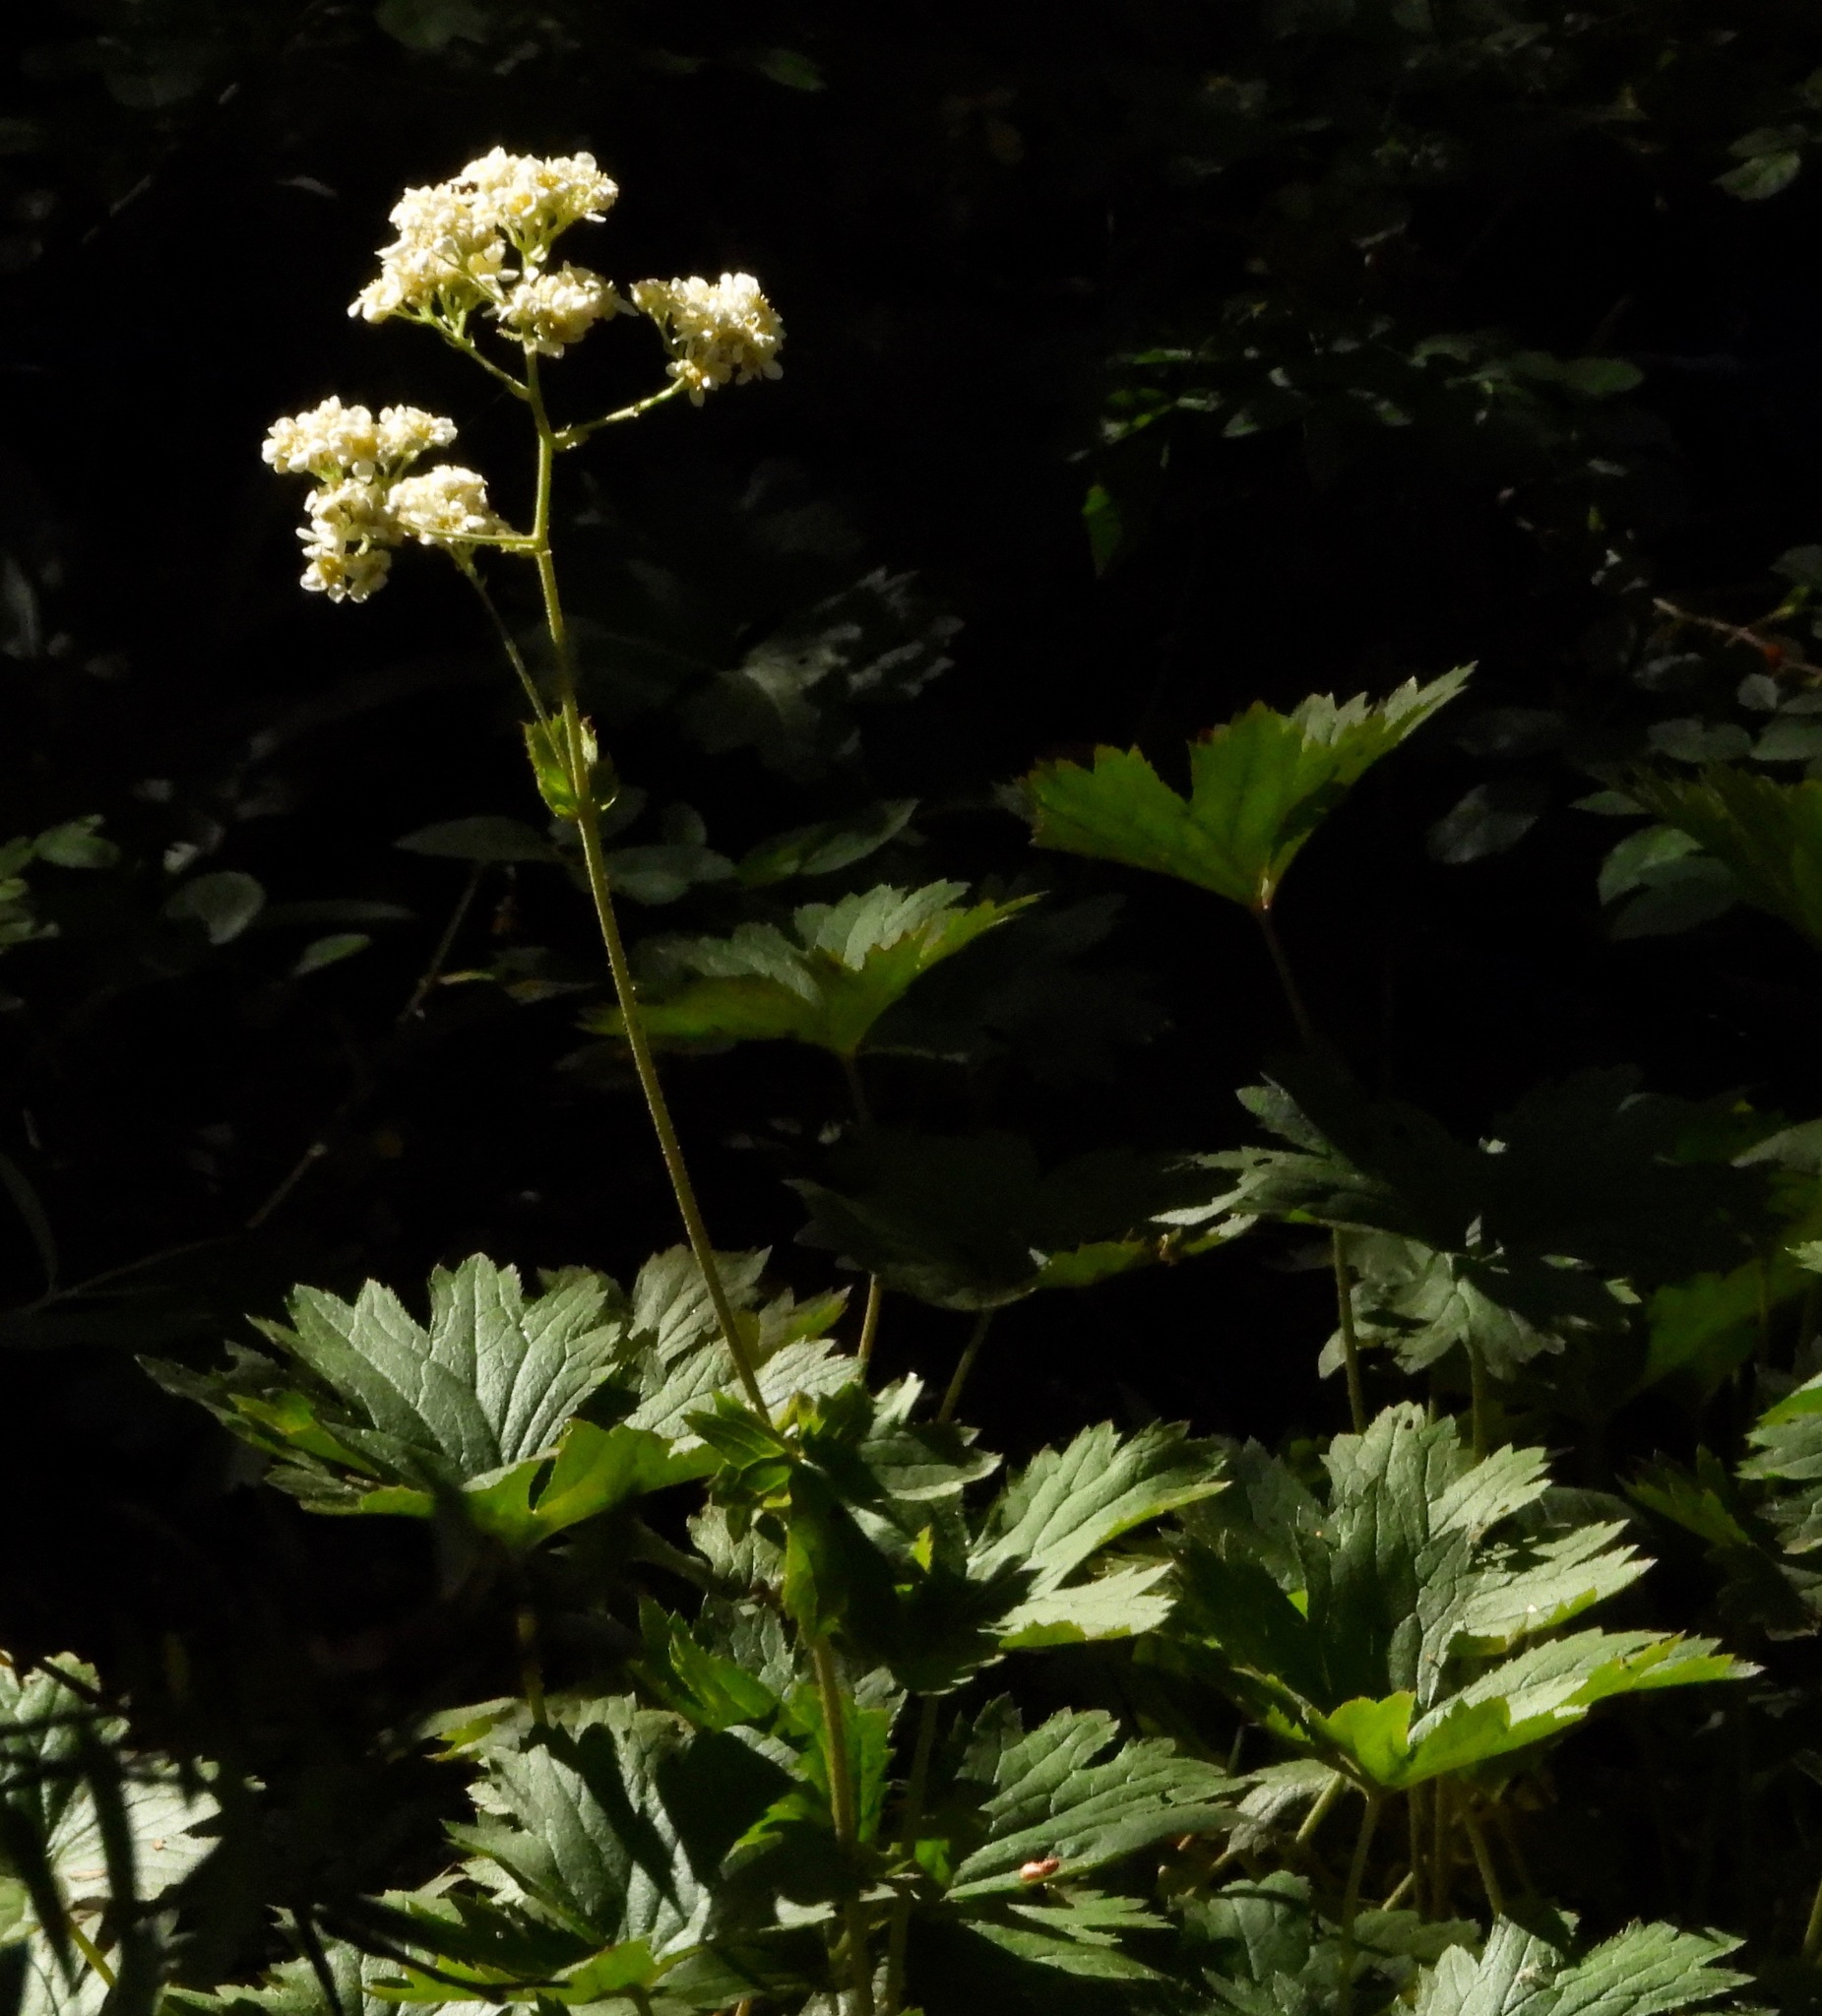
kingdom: Plantae
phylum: Tracheophyta
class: Magnoliopsida
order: Saxifragales
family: Saxifragaceae
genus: Boykinia
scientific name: Boykinia major
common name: Large boykinia
